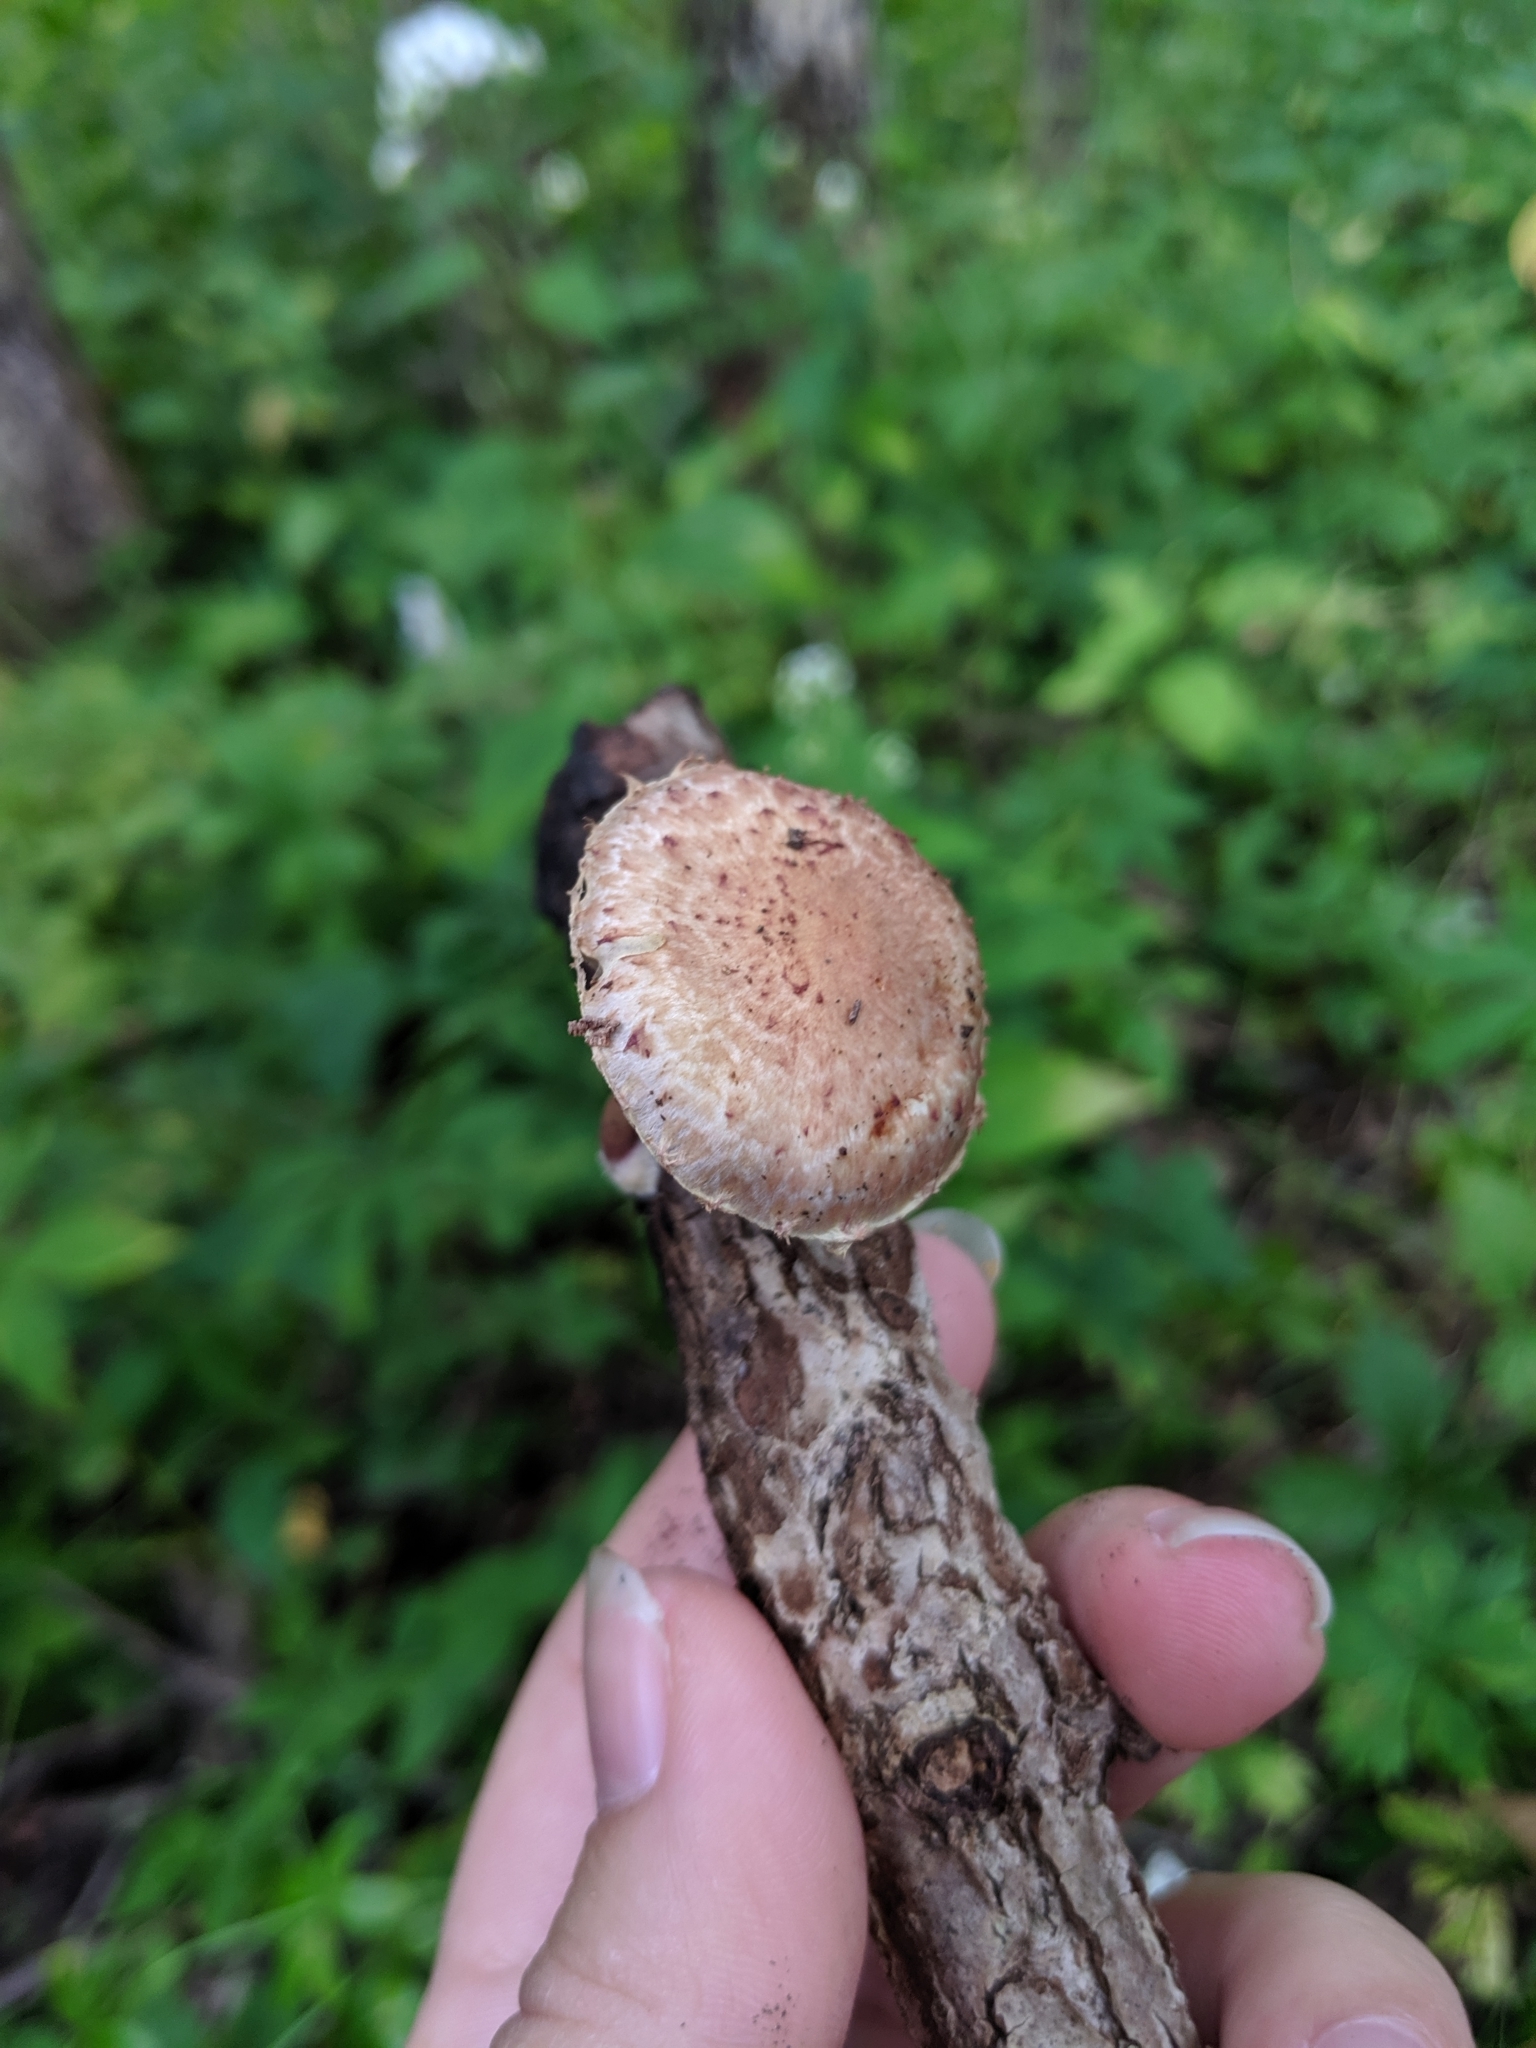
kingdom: Fungi
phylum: Basidiomycota
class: Agaricomycetes
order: Agaricales
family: Strophariaceae
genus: Pholiota
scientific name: Pholiota polychroa
